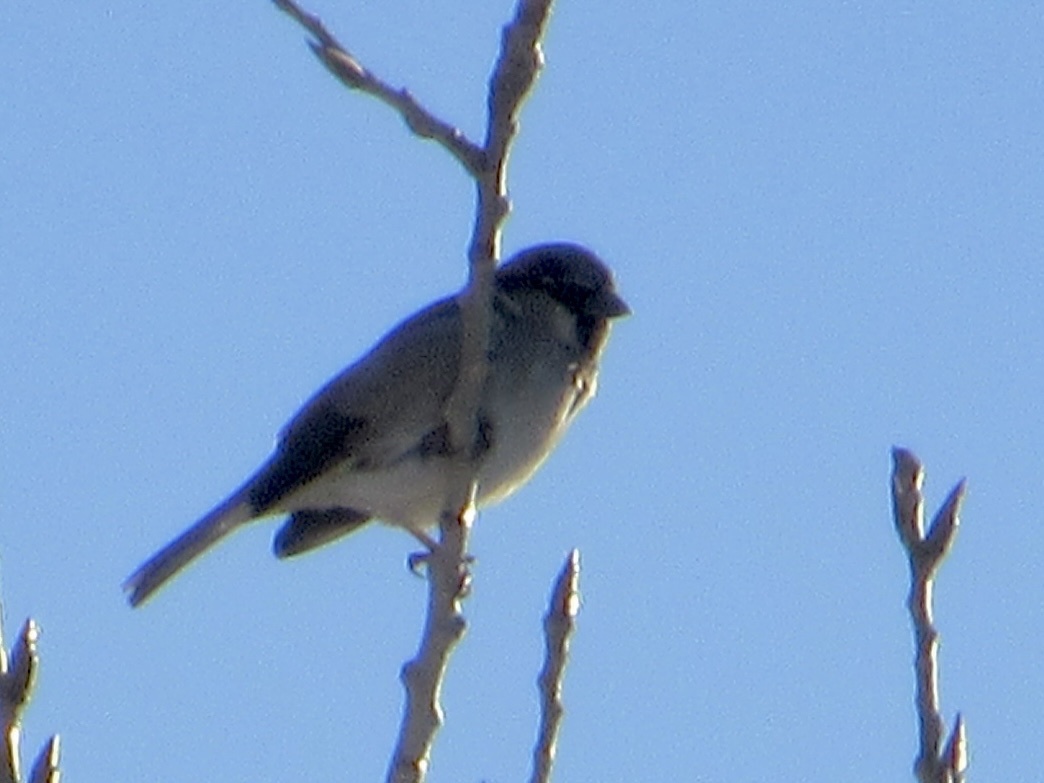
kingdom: Animalia
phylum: Chordata
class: Aves
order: Passeriformes
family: Passeridae
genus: Passer
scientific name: Passer domesticus
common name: House sparrow
